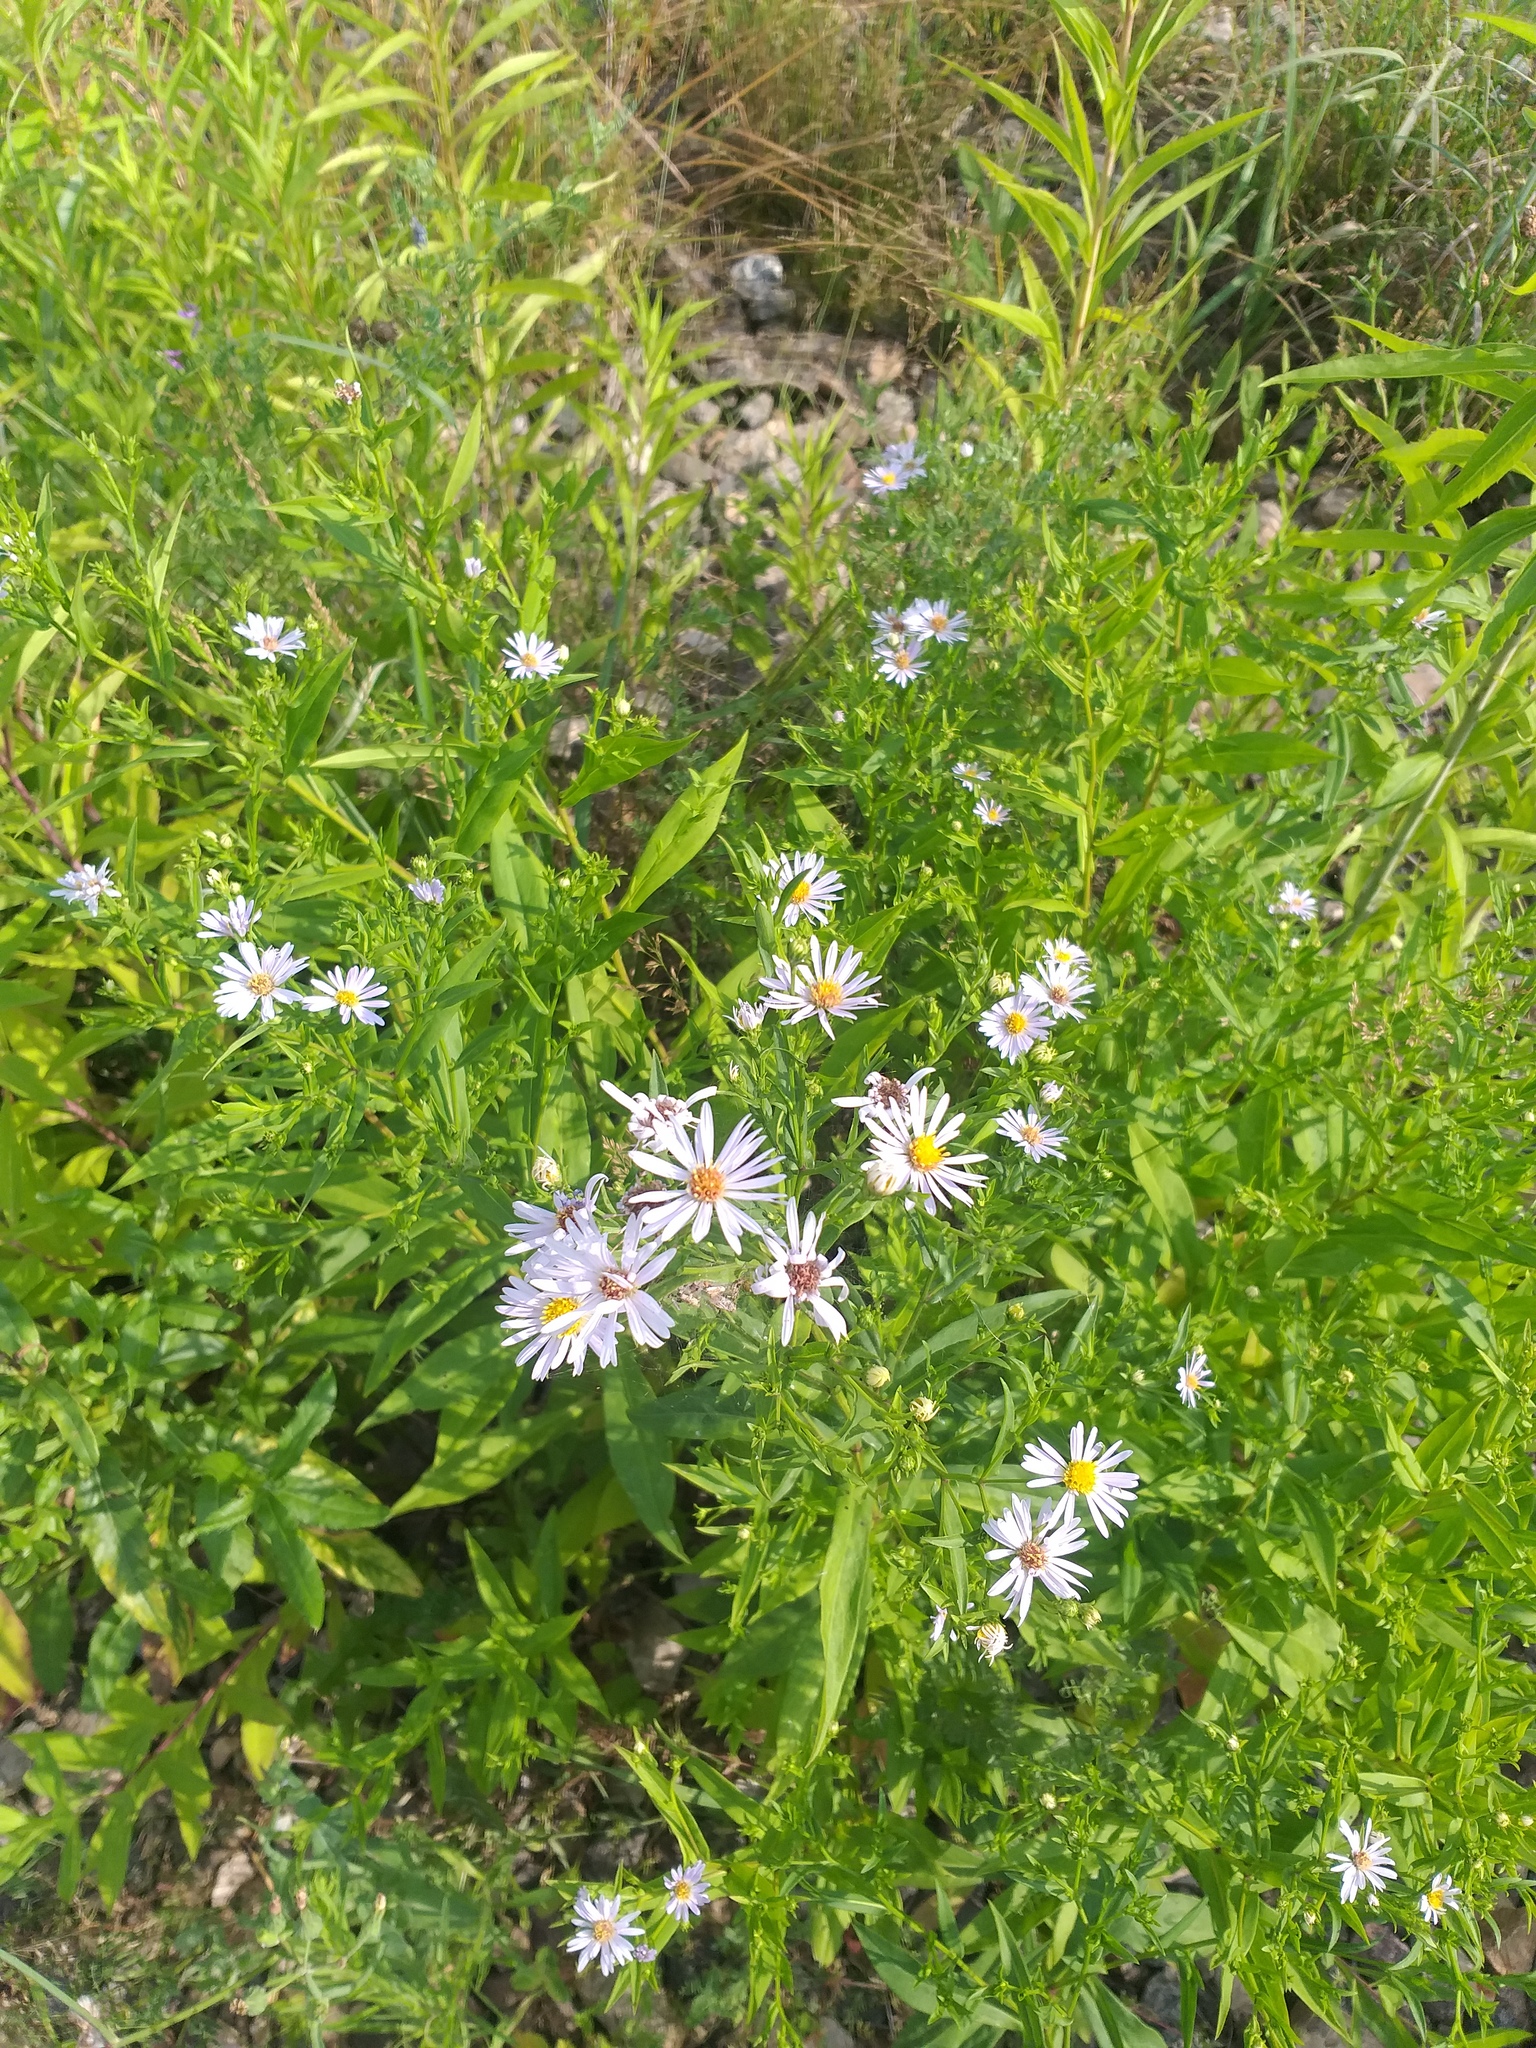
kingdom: Plantae
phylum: Tracheophyta
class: Magnoliopsida
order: Asterales
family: Asteraceae
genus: Symphyotrichum
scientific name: Symphyotrichum novi-belgii
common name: Michaelmas daisy
